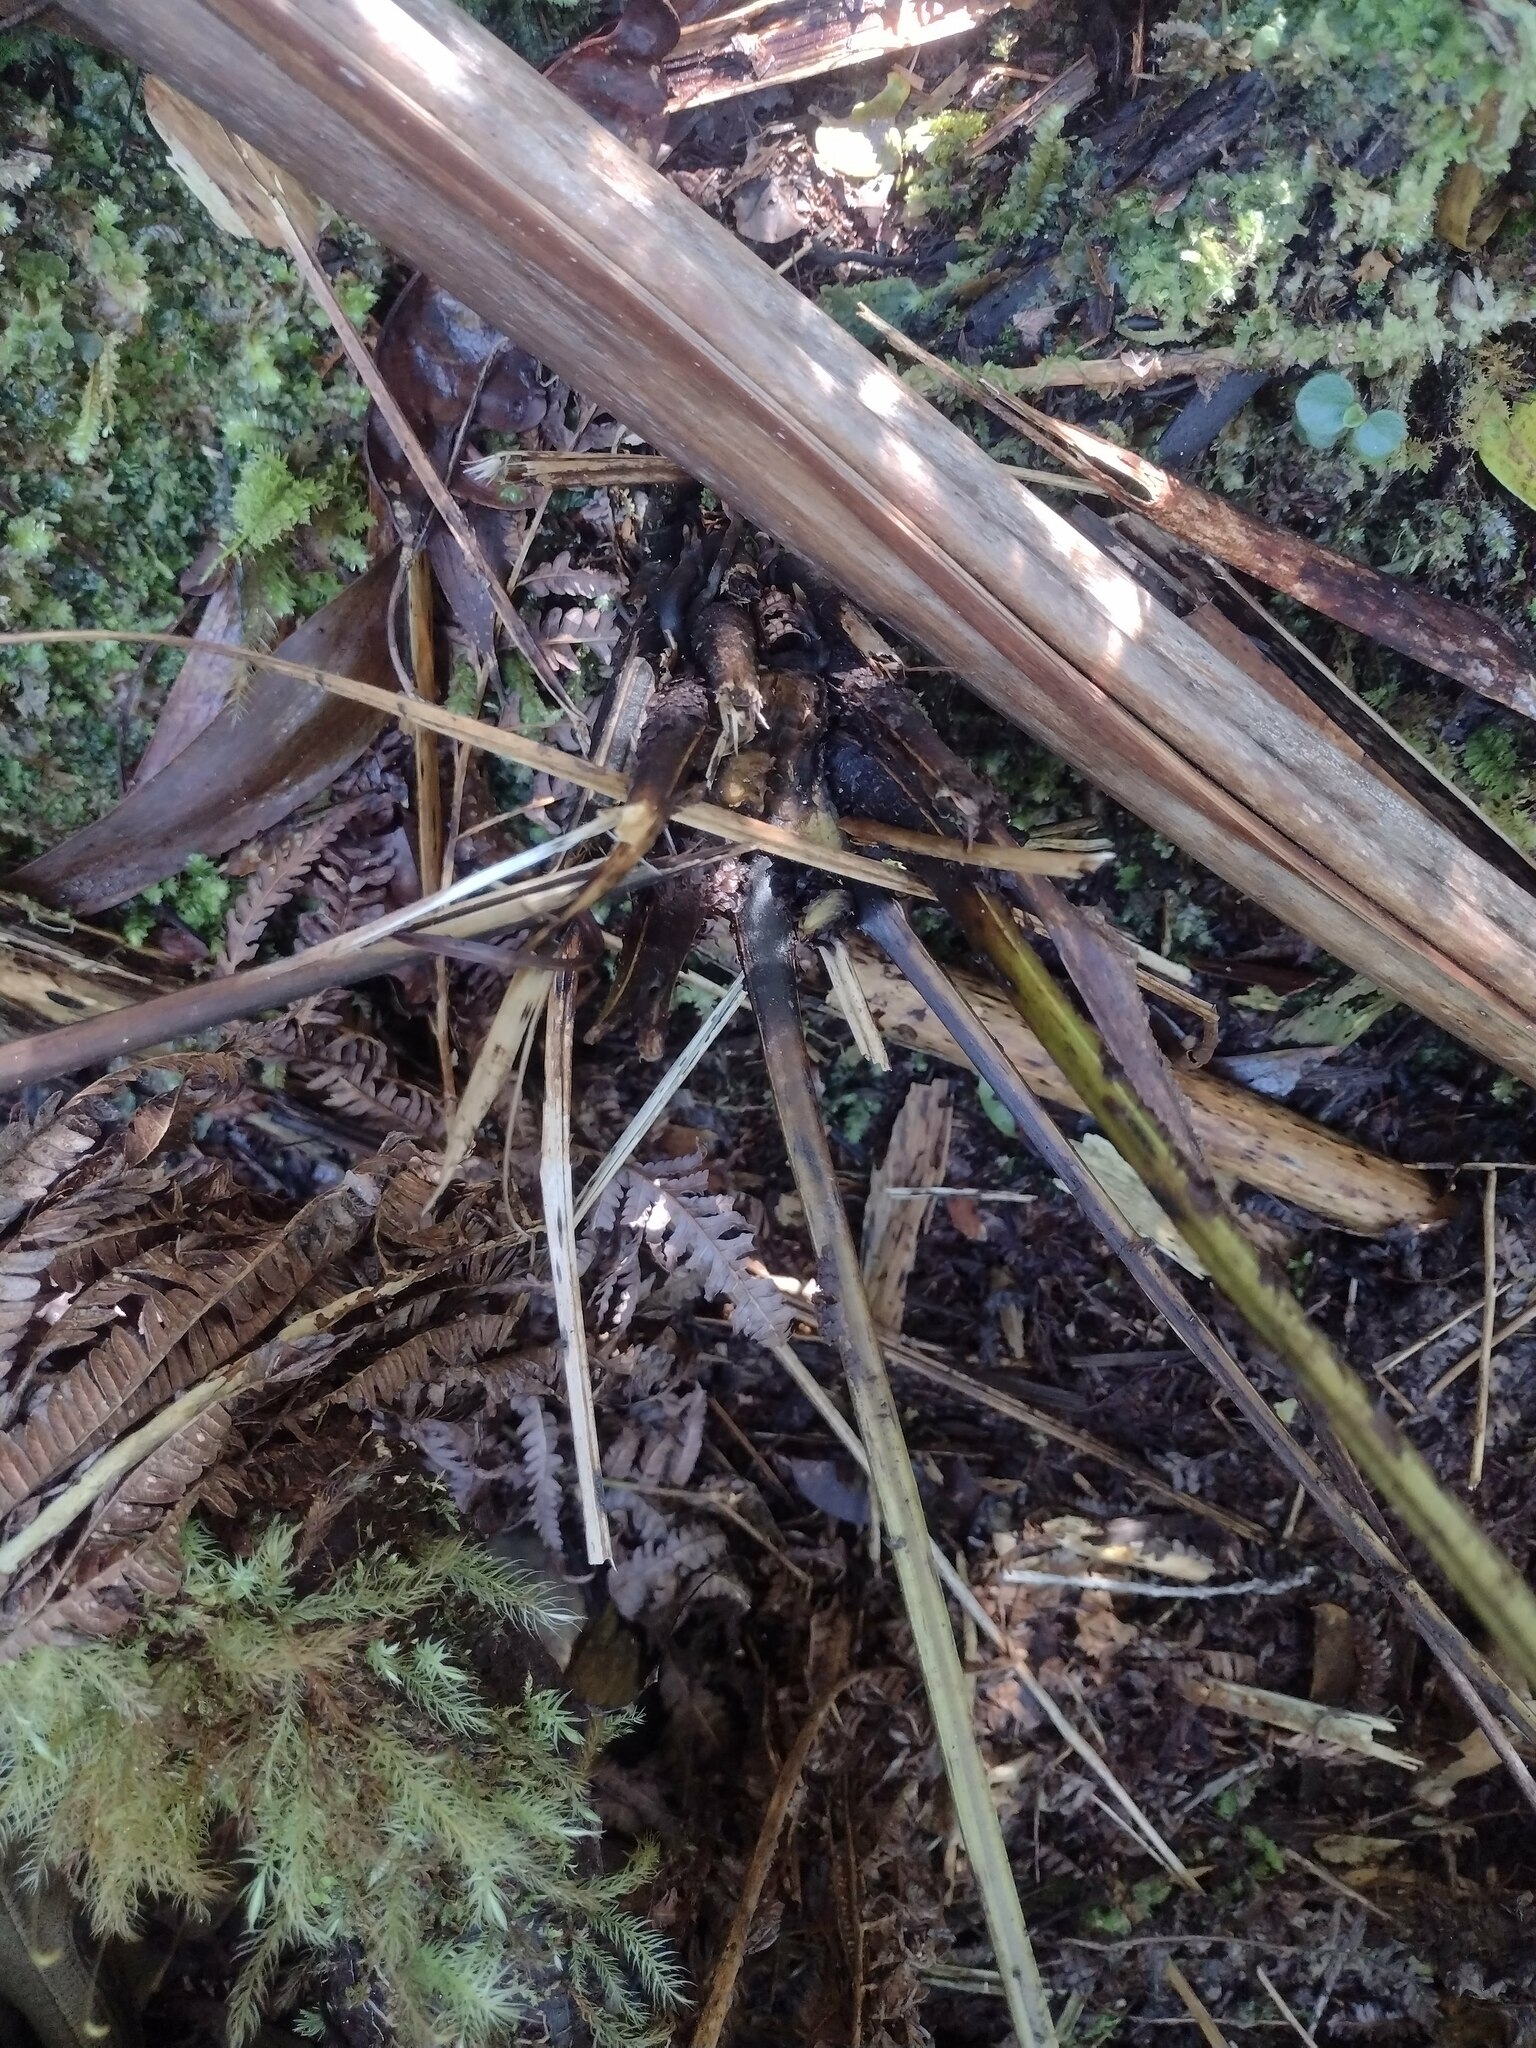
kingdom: Plantae
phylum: Tracheophyta
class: Polypodiopsida
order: Polypodiales
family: Athyriaceae
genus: Diplazium
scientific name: Diplazium sandwichianum
